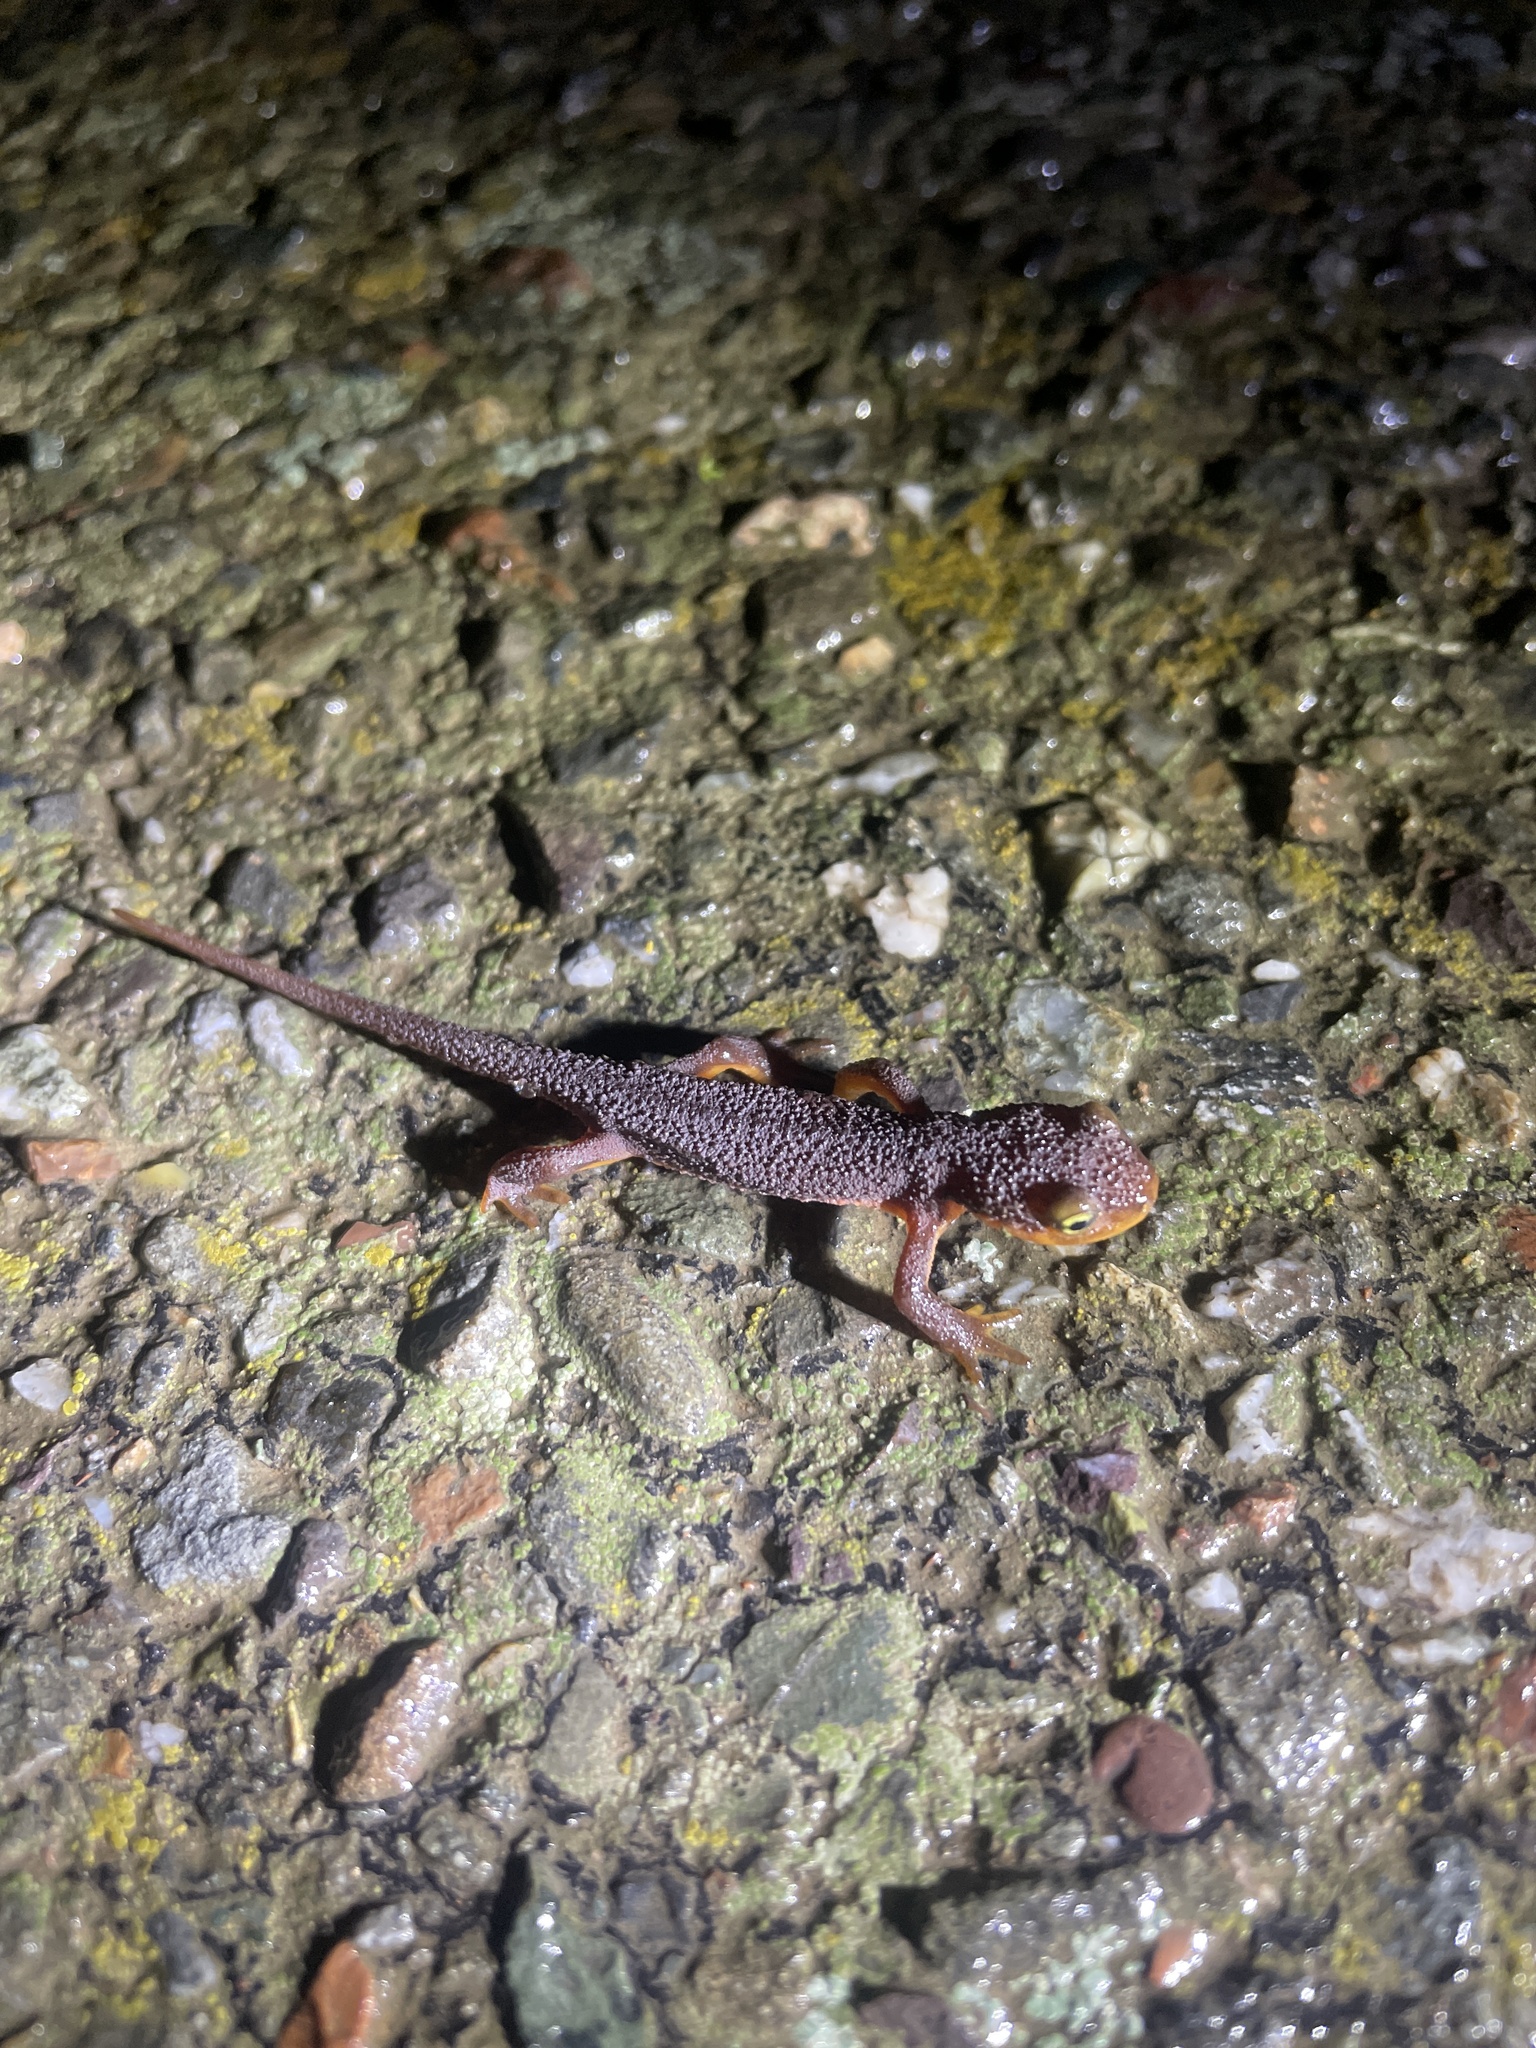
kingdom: Animalia
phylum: Chordata
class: Amphibia
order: Caudata
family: Salamandridae
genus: Taricha
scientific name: Taricha torosa
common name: California newt
